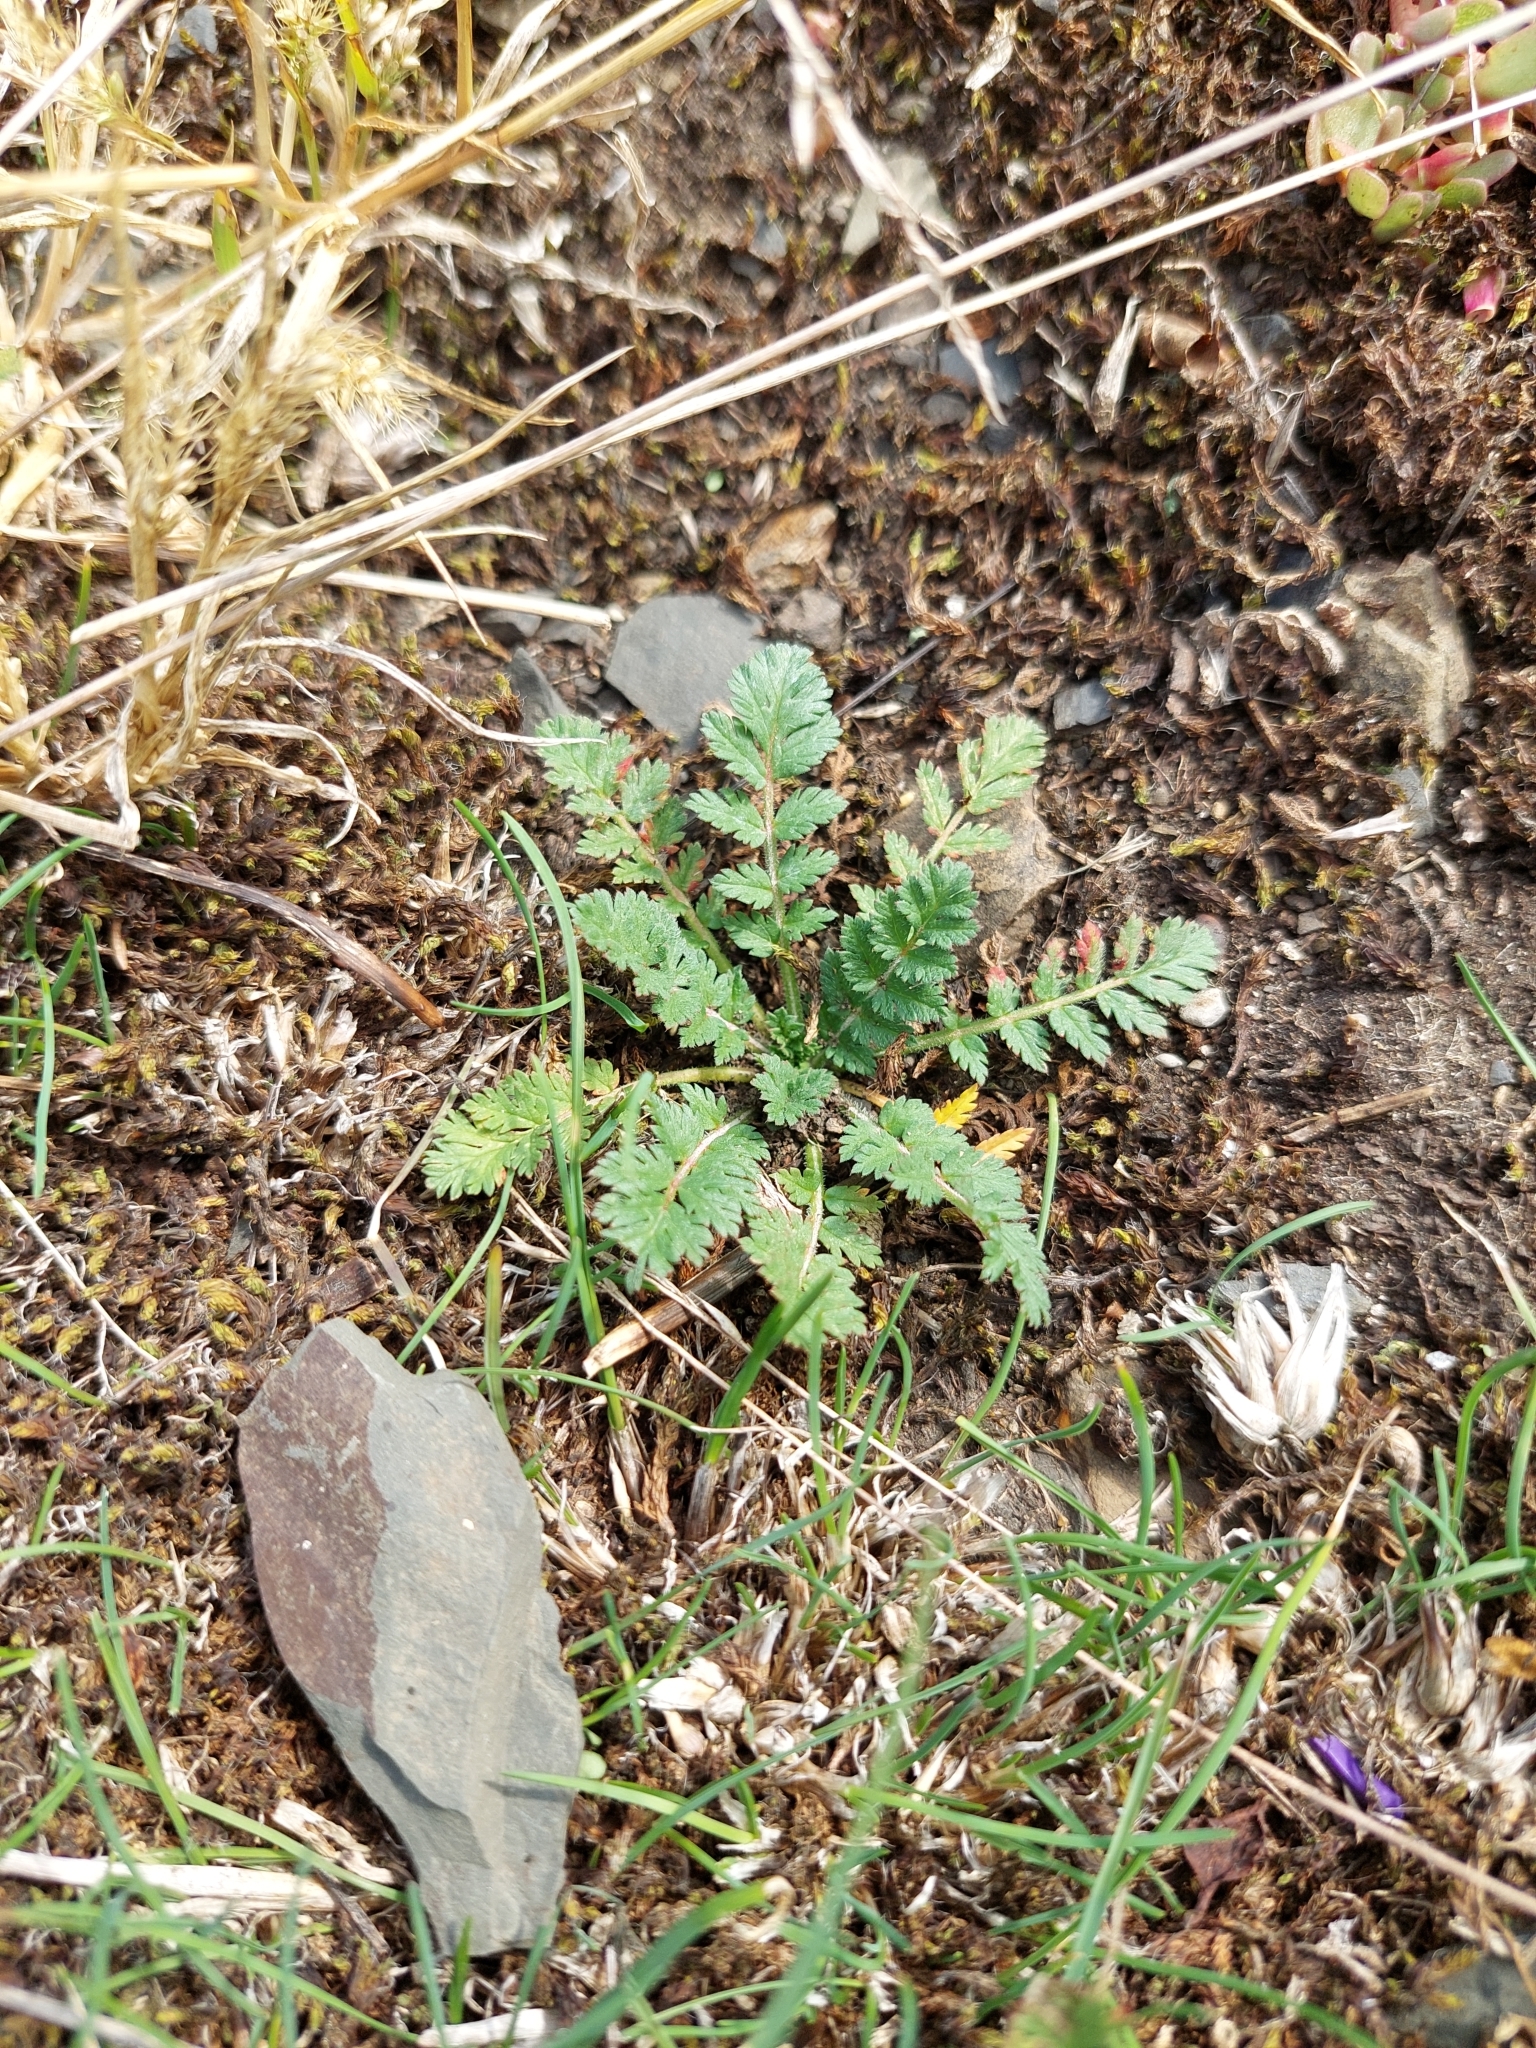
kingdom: Plantae
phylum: Tracheophyta
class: Magnoliopsida
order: Geraniales
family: Geraniaceae
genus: Erodium
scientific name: Erodium cicutarium
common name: Common stork's-bill
